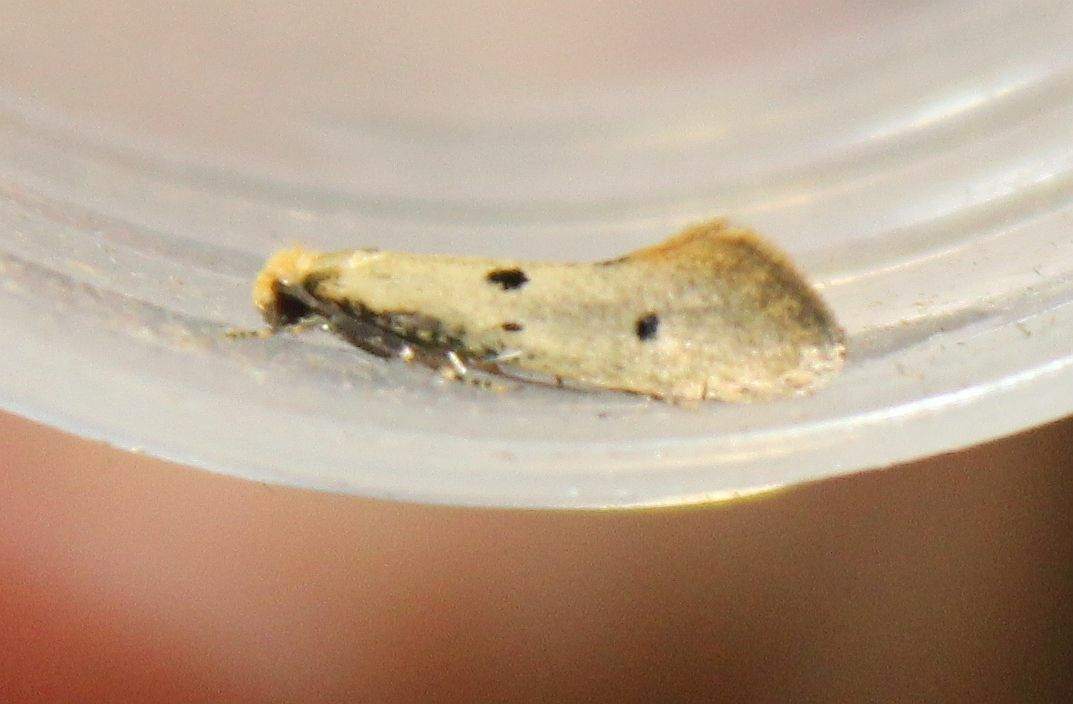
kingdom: Animalia
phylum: Arthropoda
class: Insecta
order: Lepidoptera
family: Tineidae
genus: Tinea
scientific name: Tinea trinotella
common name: Bird's-nest moth
